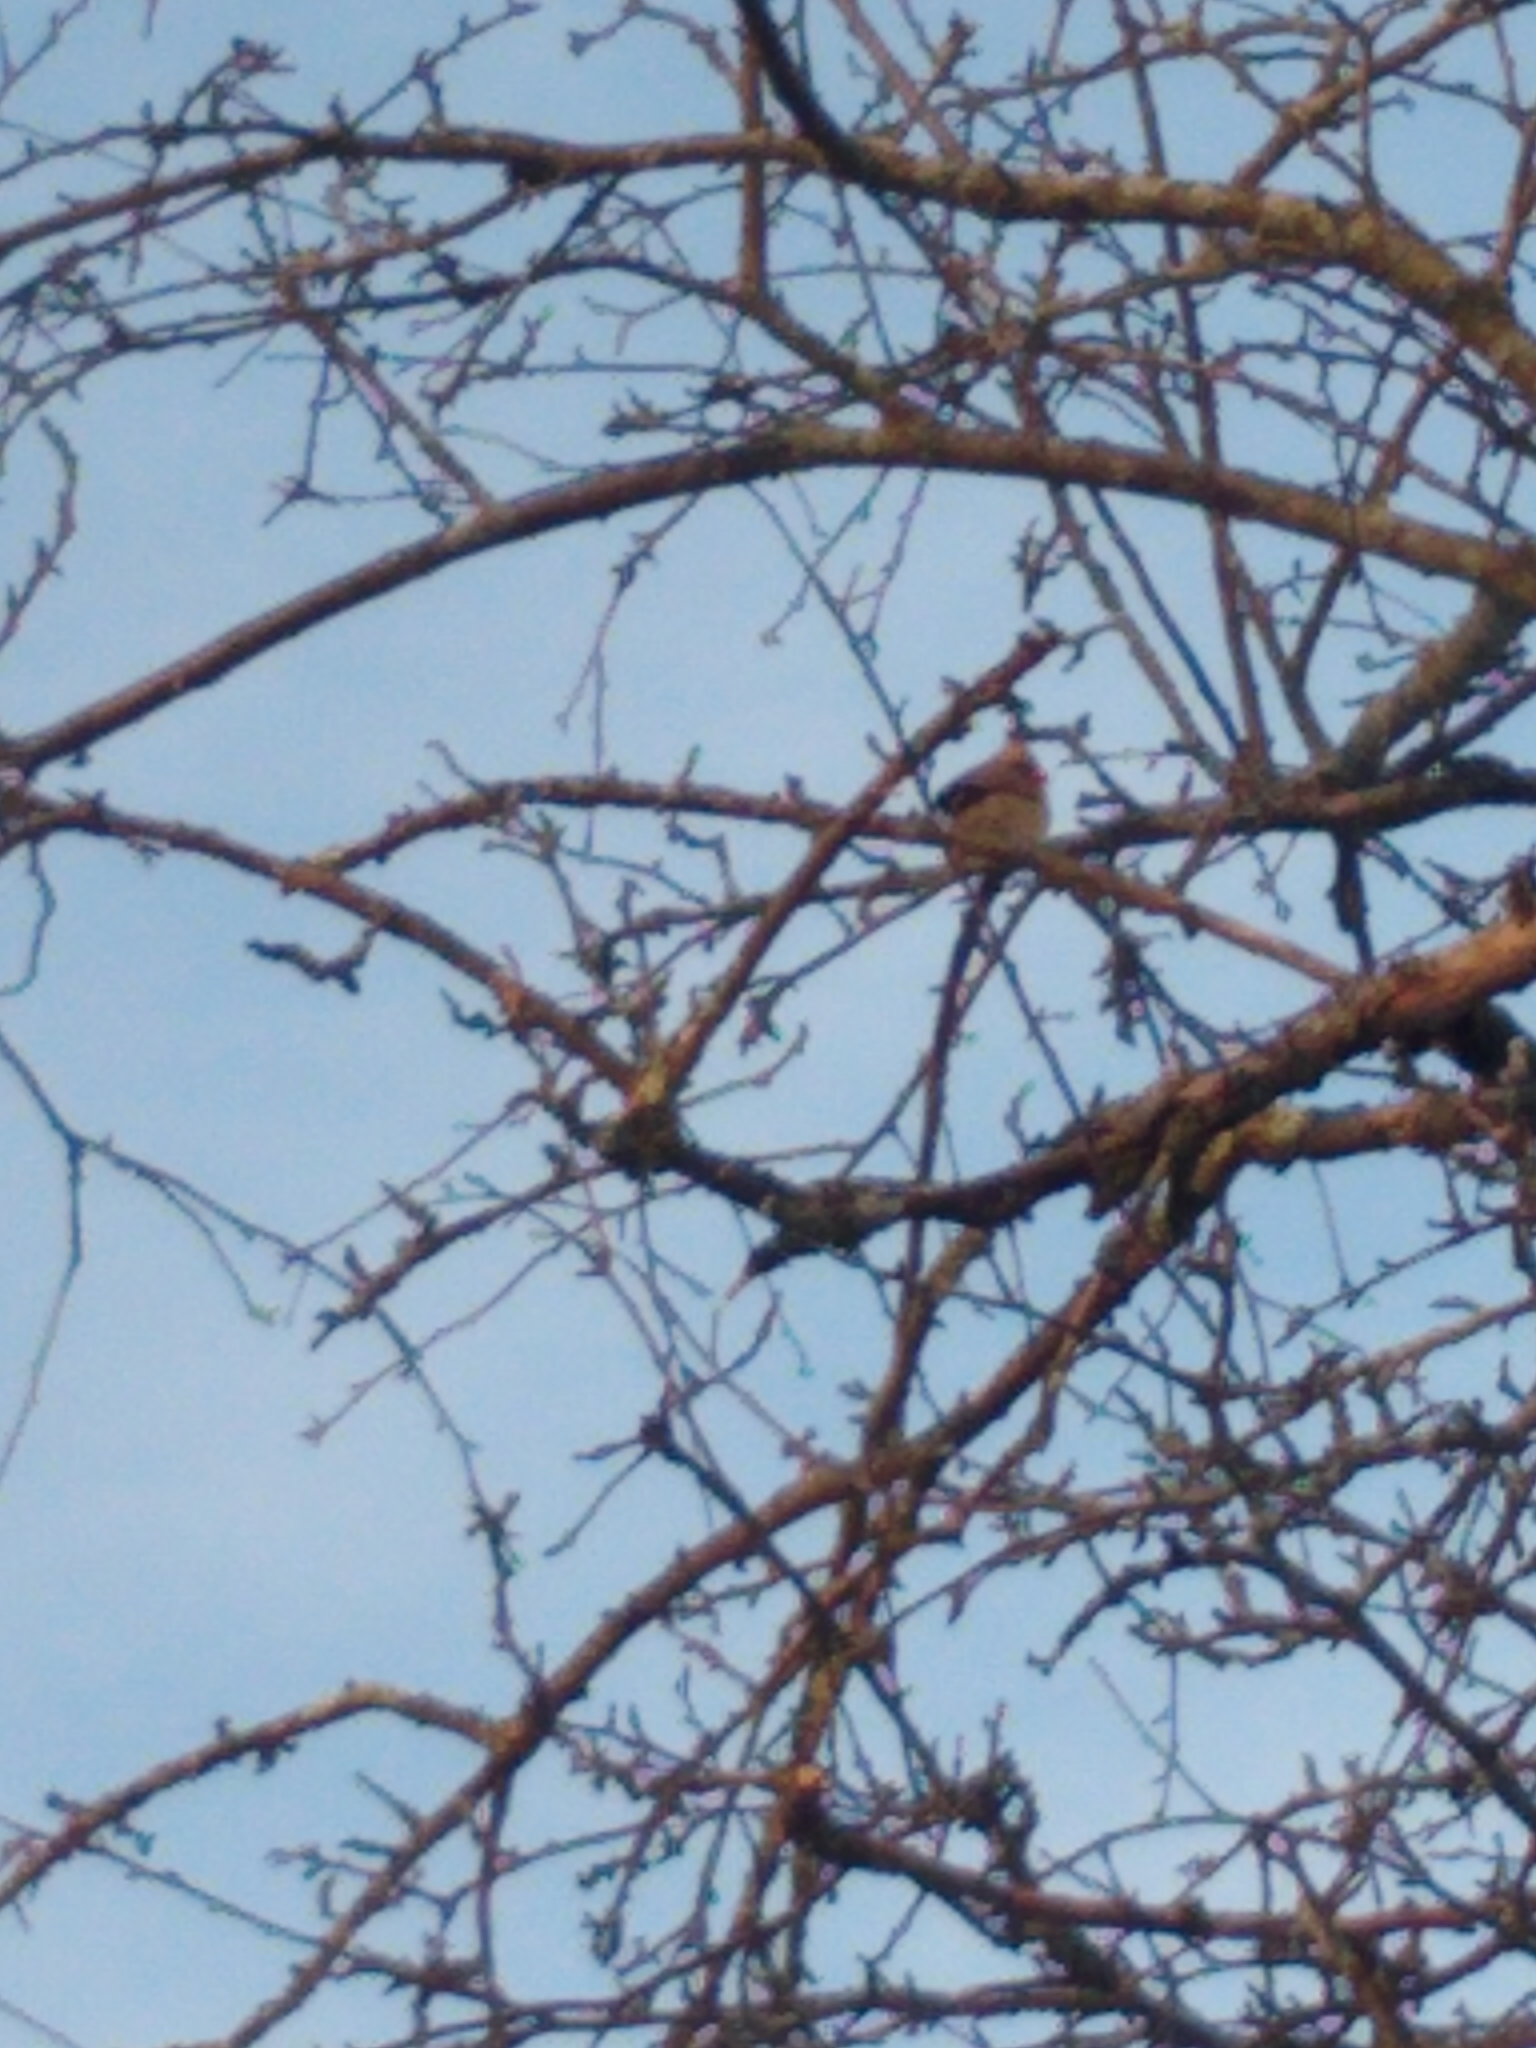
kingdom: Animalia
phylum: Chordata
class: Aves
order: Passeriformes
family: Cardinalidae
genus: Cardinalis
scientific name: Cardinalis cardinalis
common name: Northern cardinal
